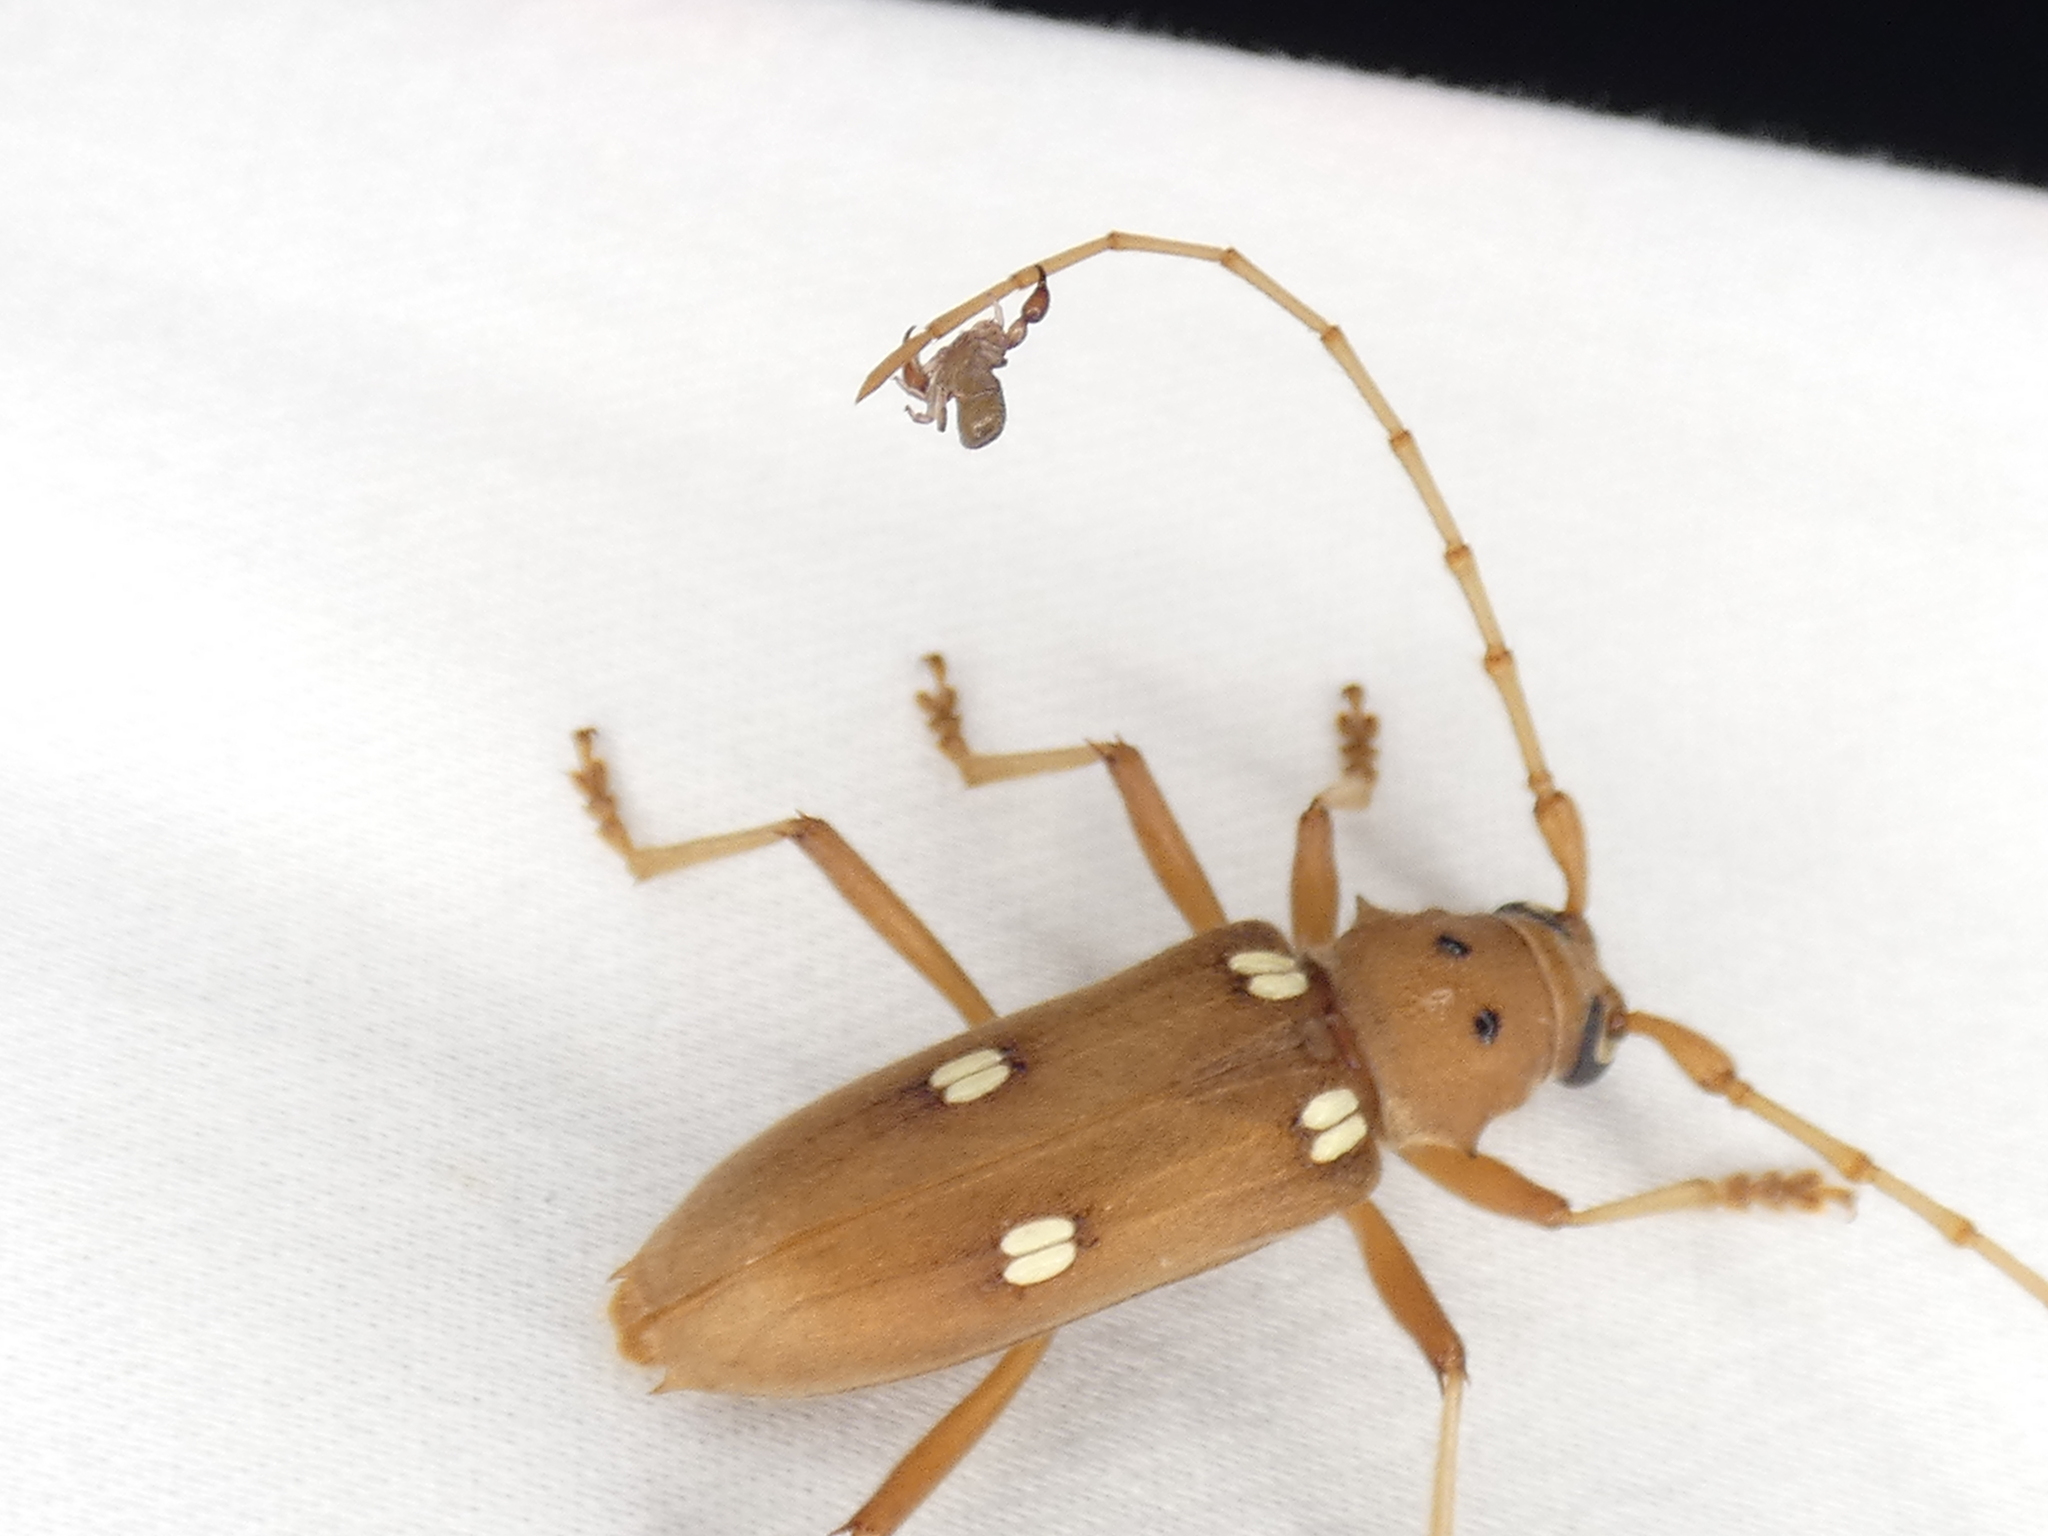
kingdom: Animalia
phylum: Arthropoda
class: Insecta
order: Coleoptera
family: Cerambycidae
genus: Eburia
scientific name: Eburia quadrigeminata
